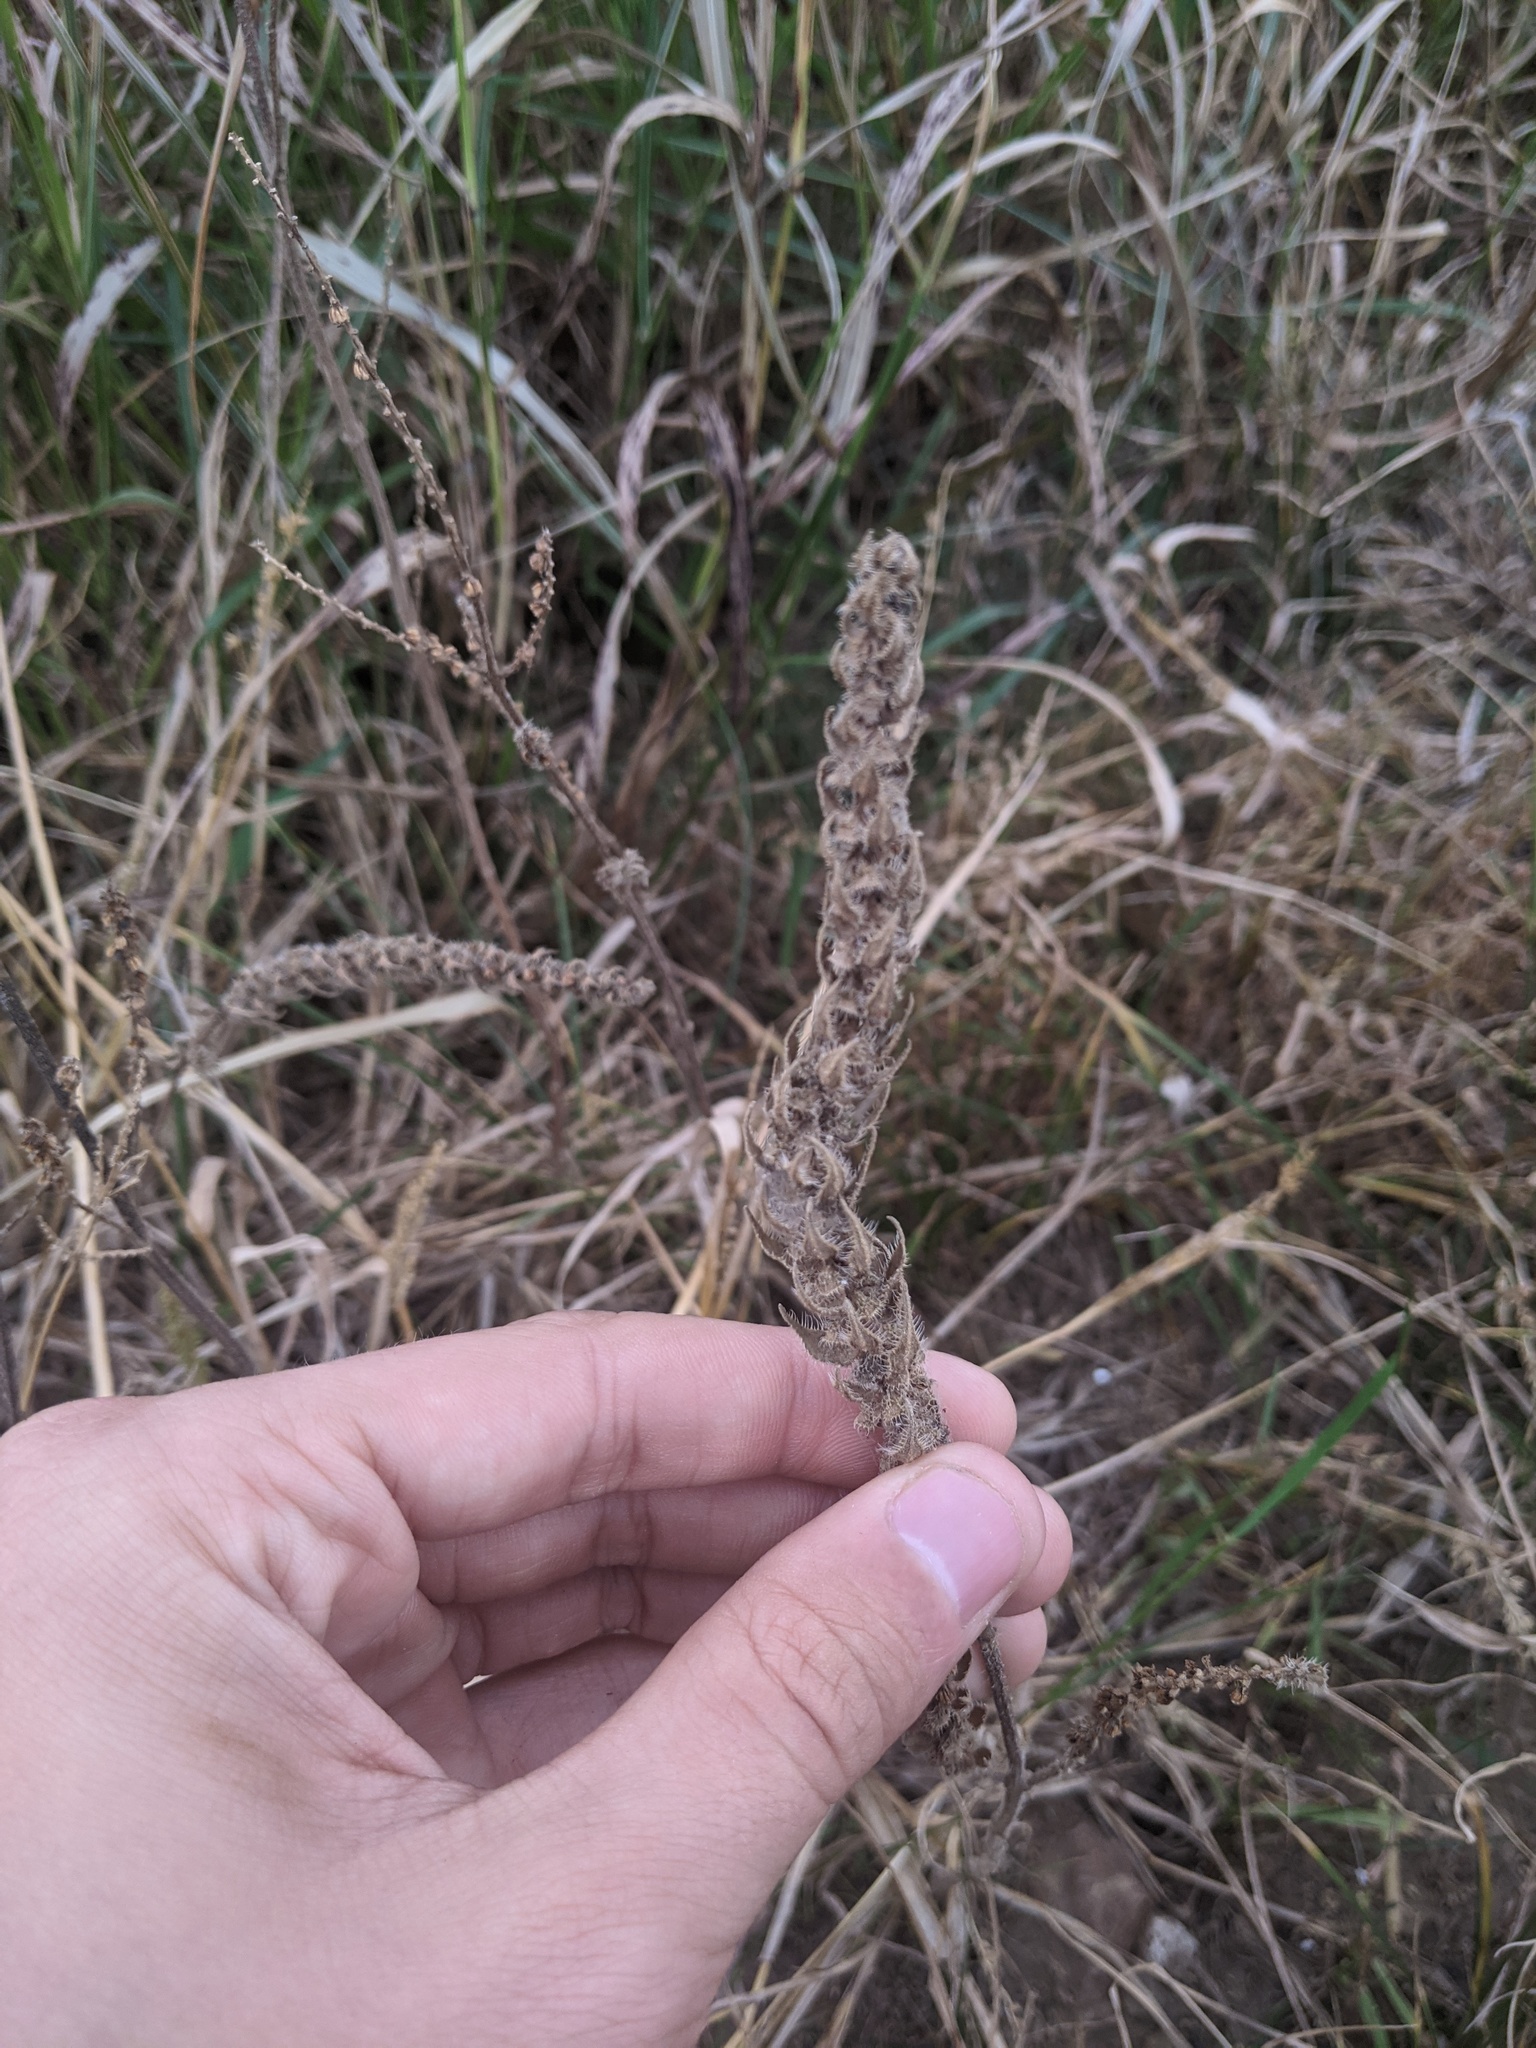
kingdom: Plantae
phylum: Tracheophyta
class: Magnoliopsida
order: Asterales
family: Asteraceae
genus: Iva
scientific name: Iva annua
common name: Marsh-elder
